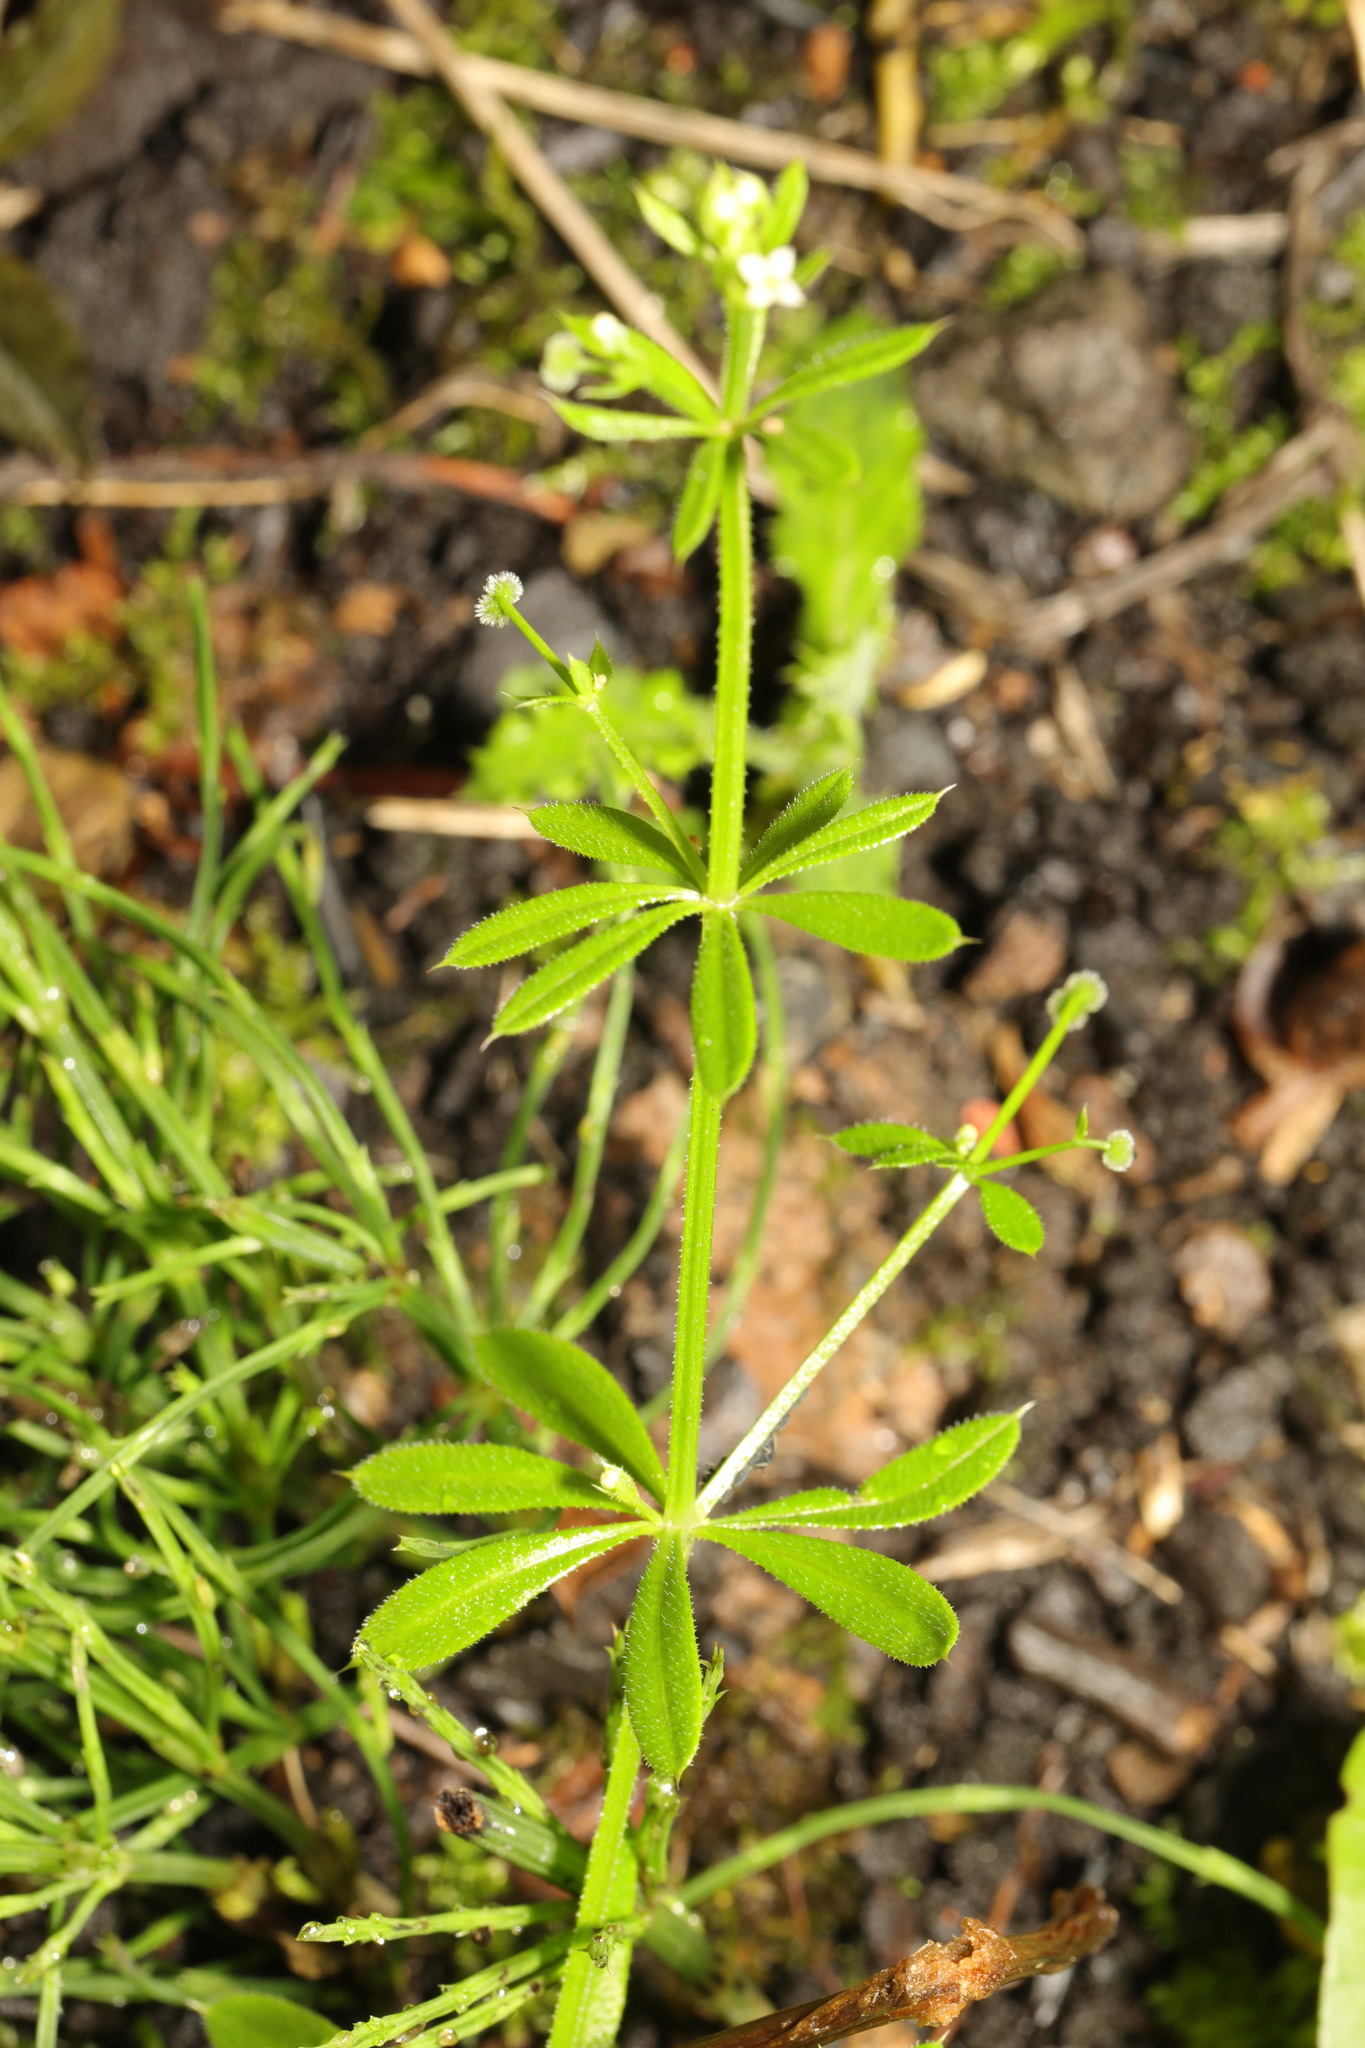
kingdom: Plantae
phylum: Tracheophyta
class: Magnoliopsida
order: Gentianales
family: Rubiaceae
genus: Galium
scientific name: Galium aparine
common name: Cleavers
